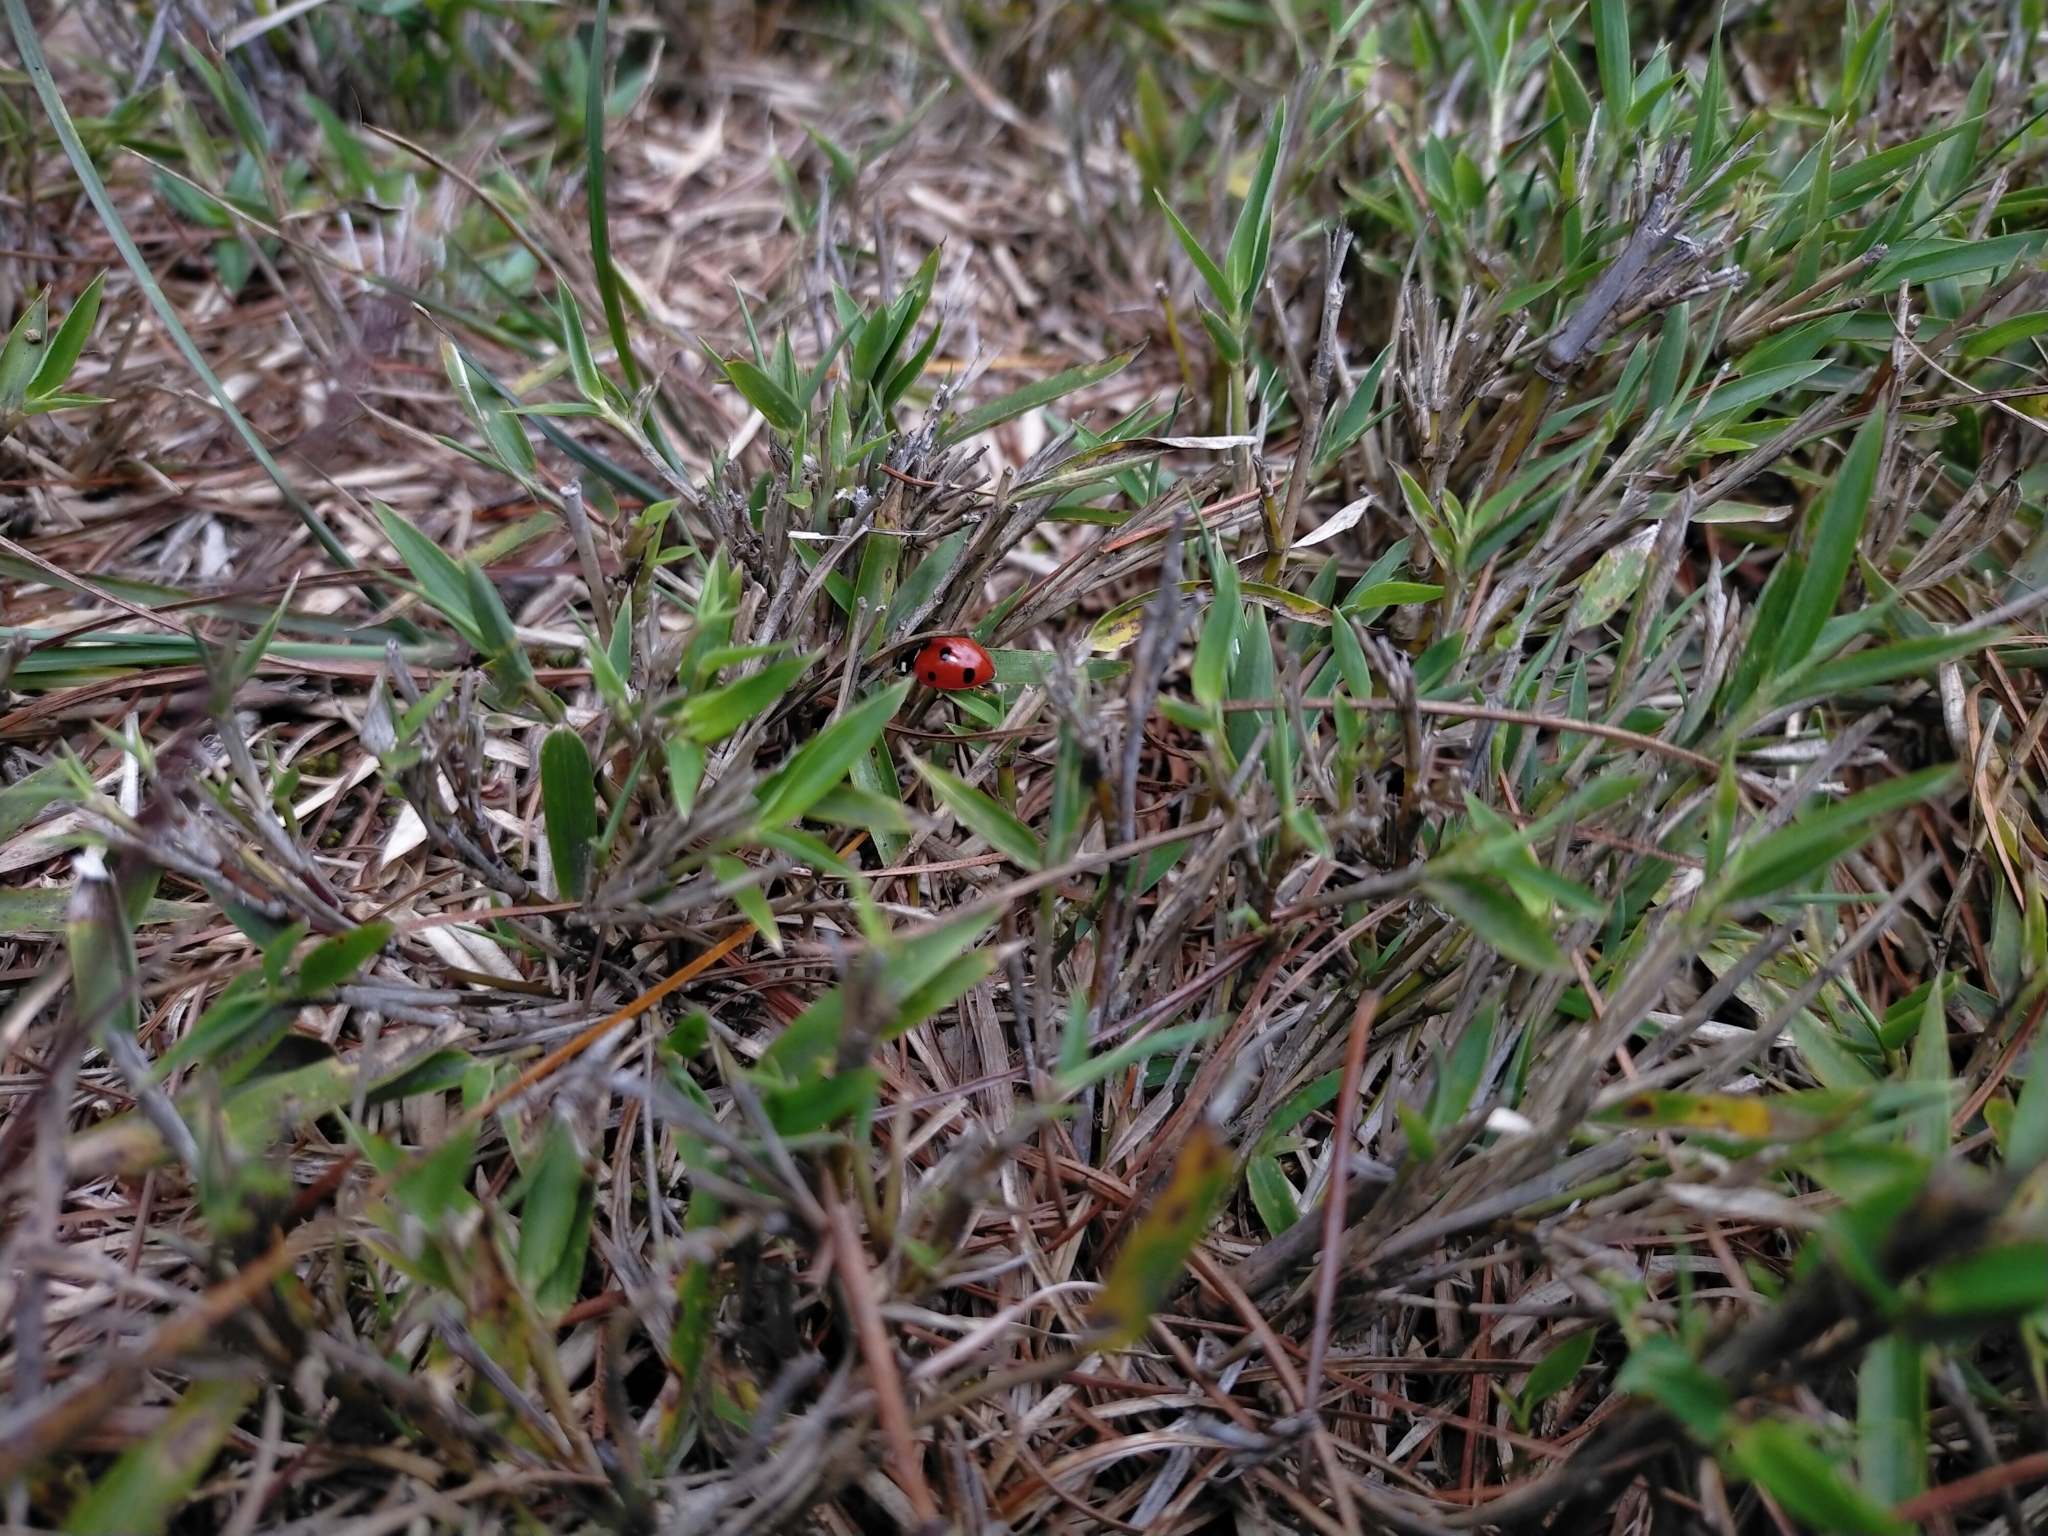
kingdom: Animalia
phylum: Arthropoda
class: Insecta
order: Coleoptera
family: Coccinellidae
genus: Coccinella
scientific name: Coccinella septempunctata
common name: Sevenspotted lady beetle
